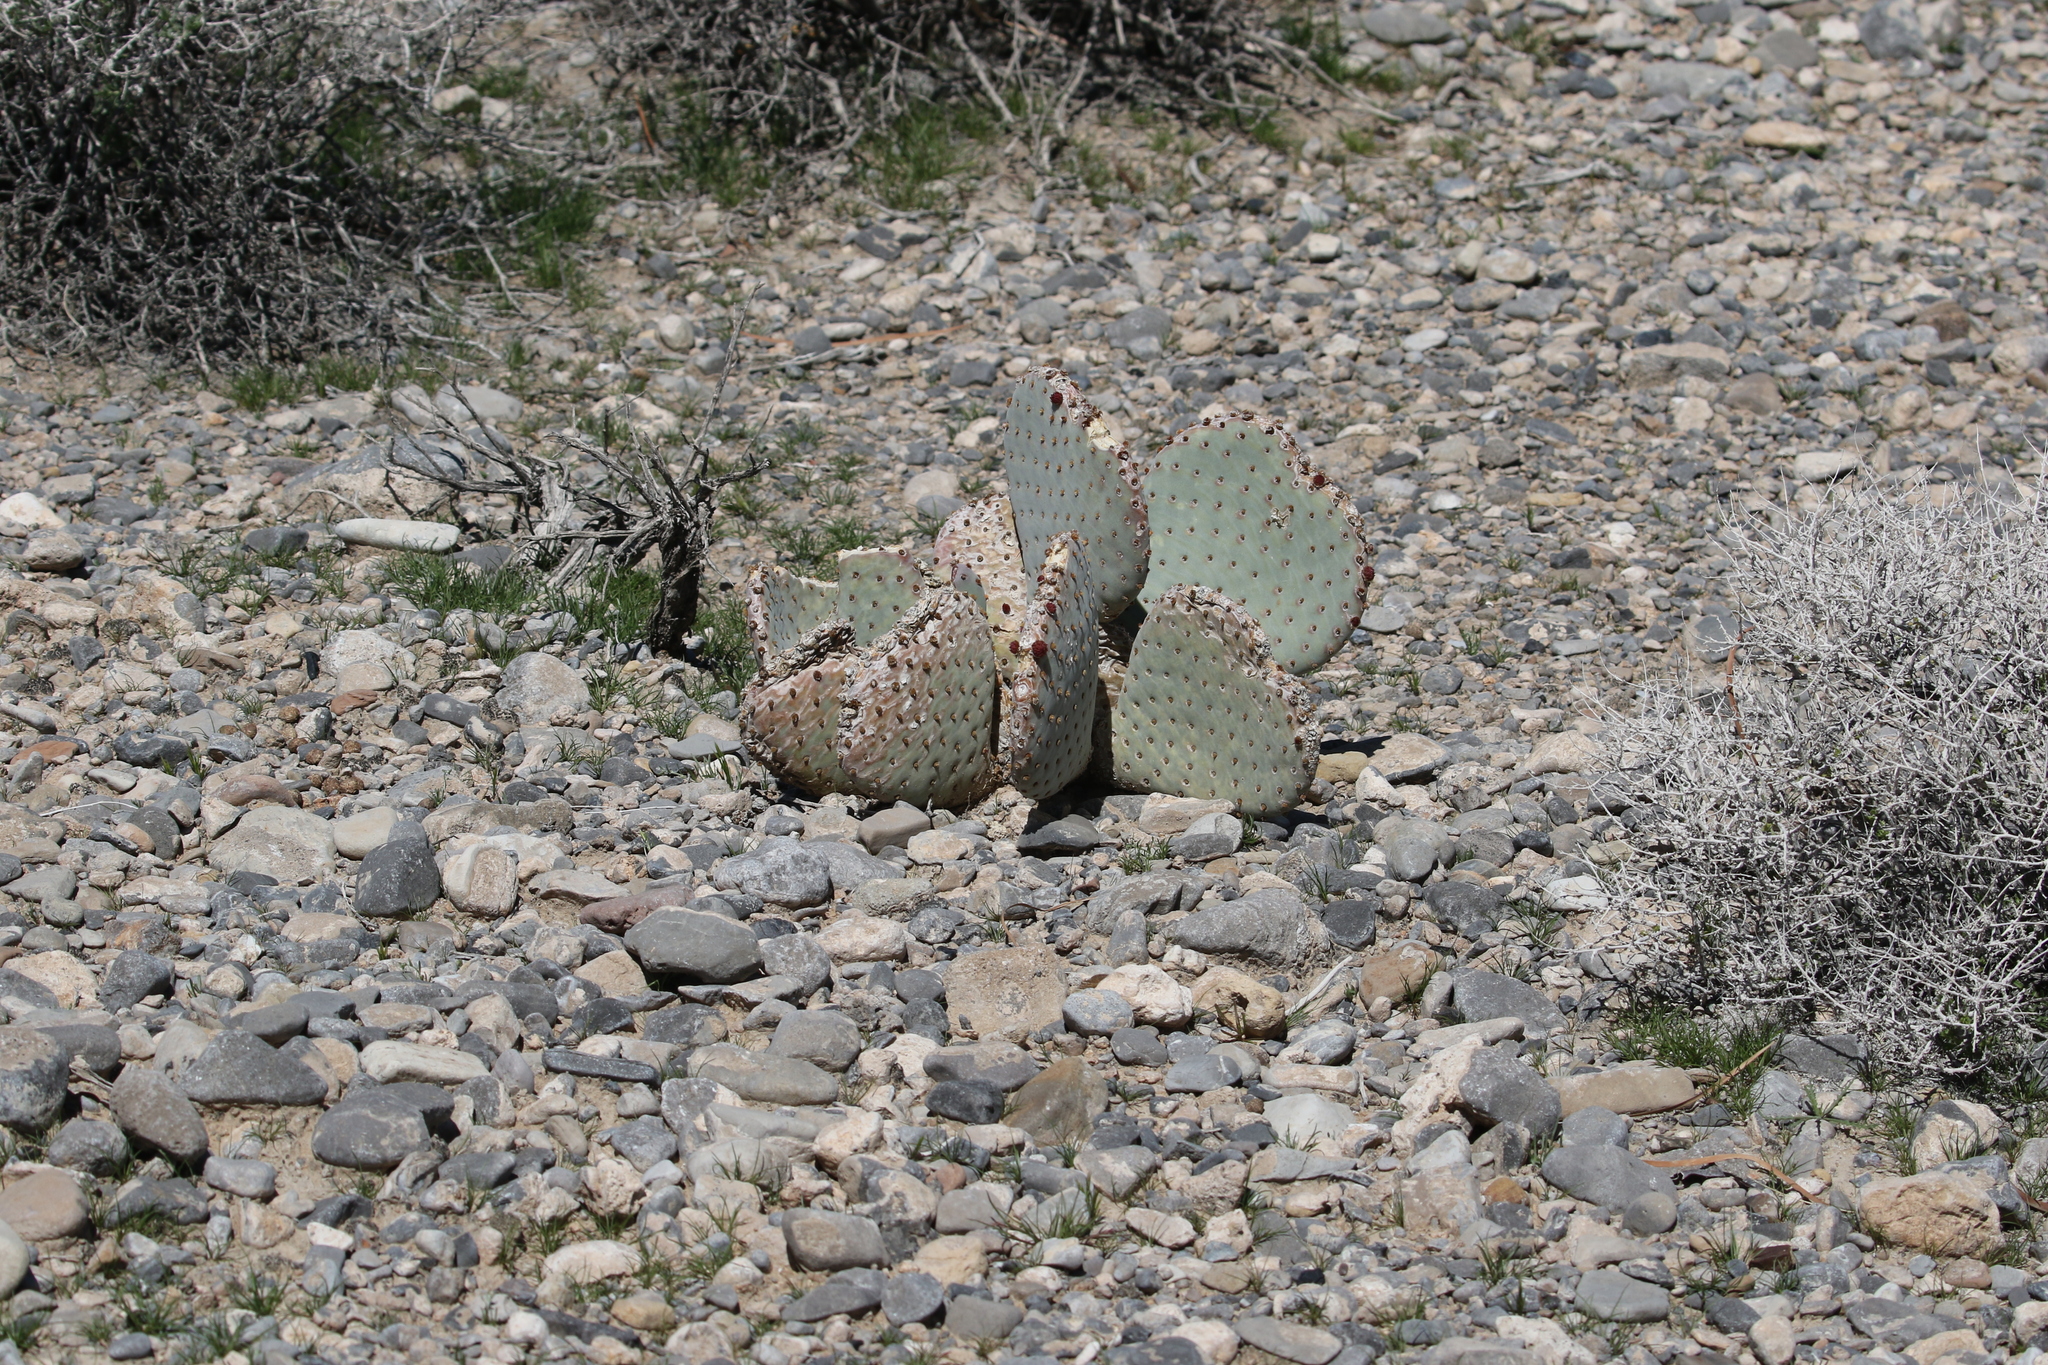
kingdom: Plantae
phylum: Tracheophyta
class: Magnoliopsida
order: Caryophyllales
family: Cactaceae
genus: Opuntia
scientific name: Opuntia basilaris
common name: Beavertail prickly-pear
